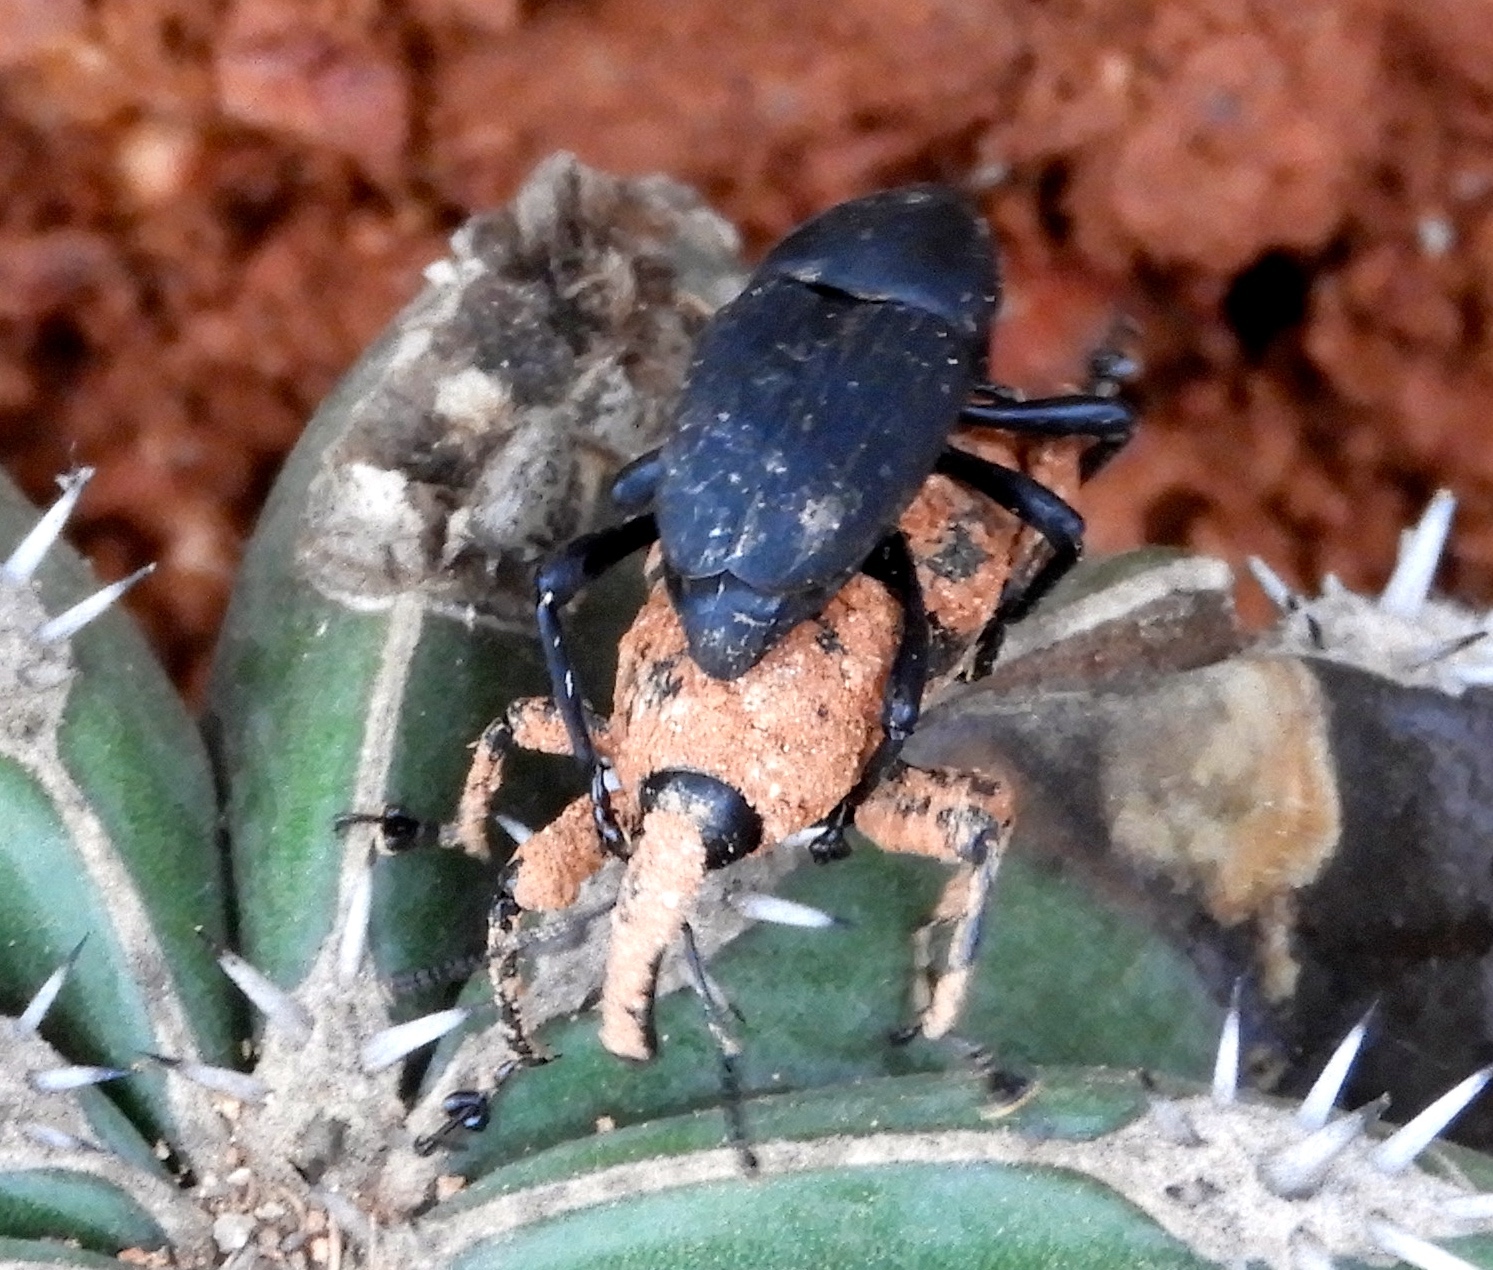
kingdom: Animalia
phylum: Arthropoda
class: Insecta
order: Coleoptera
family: Dryophthoridae
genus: Cactophagus
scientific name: Cactophagus spinolae
